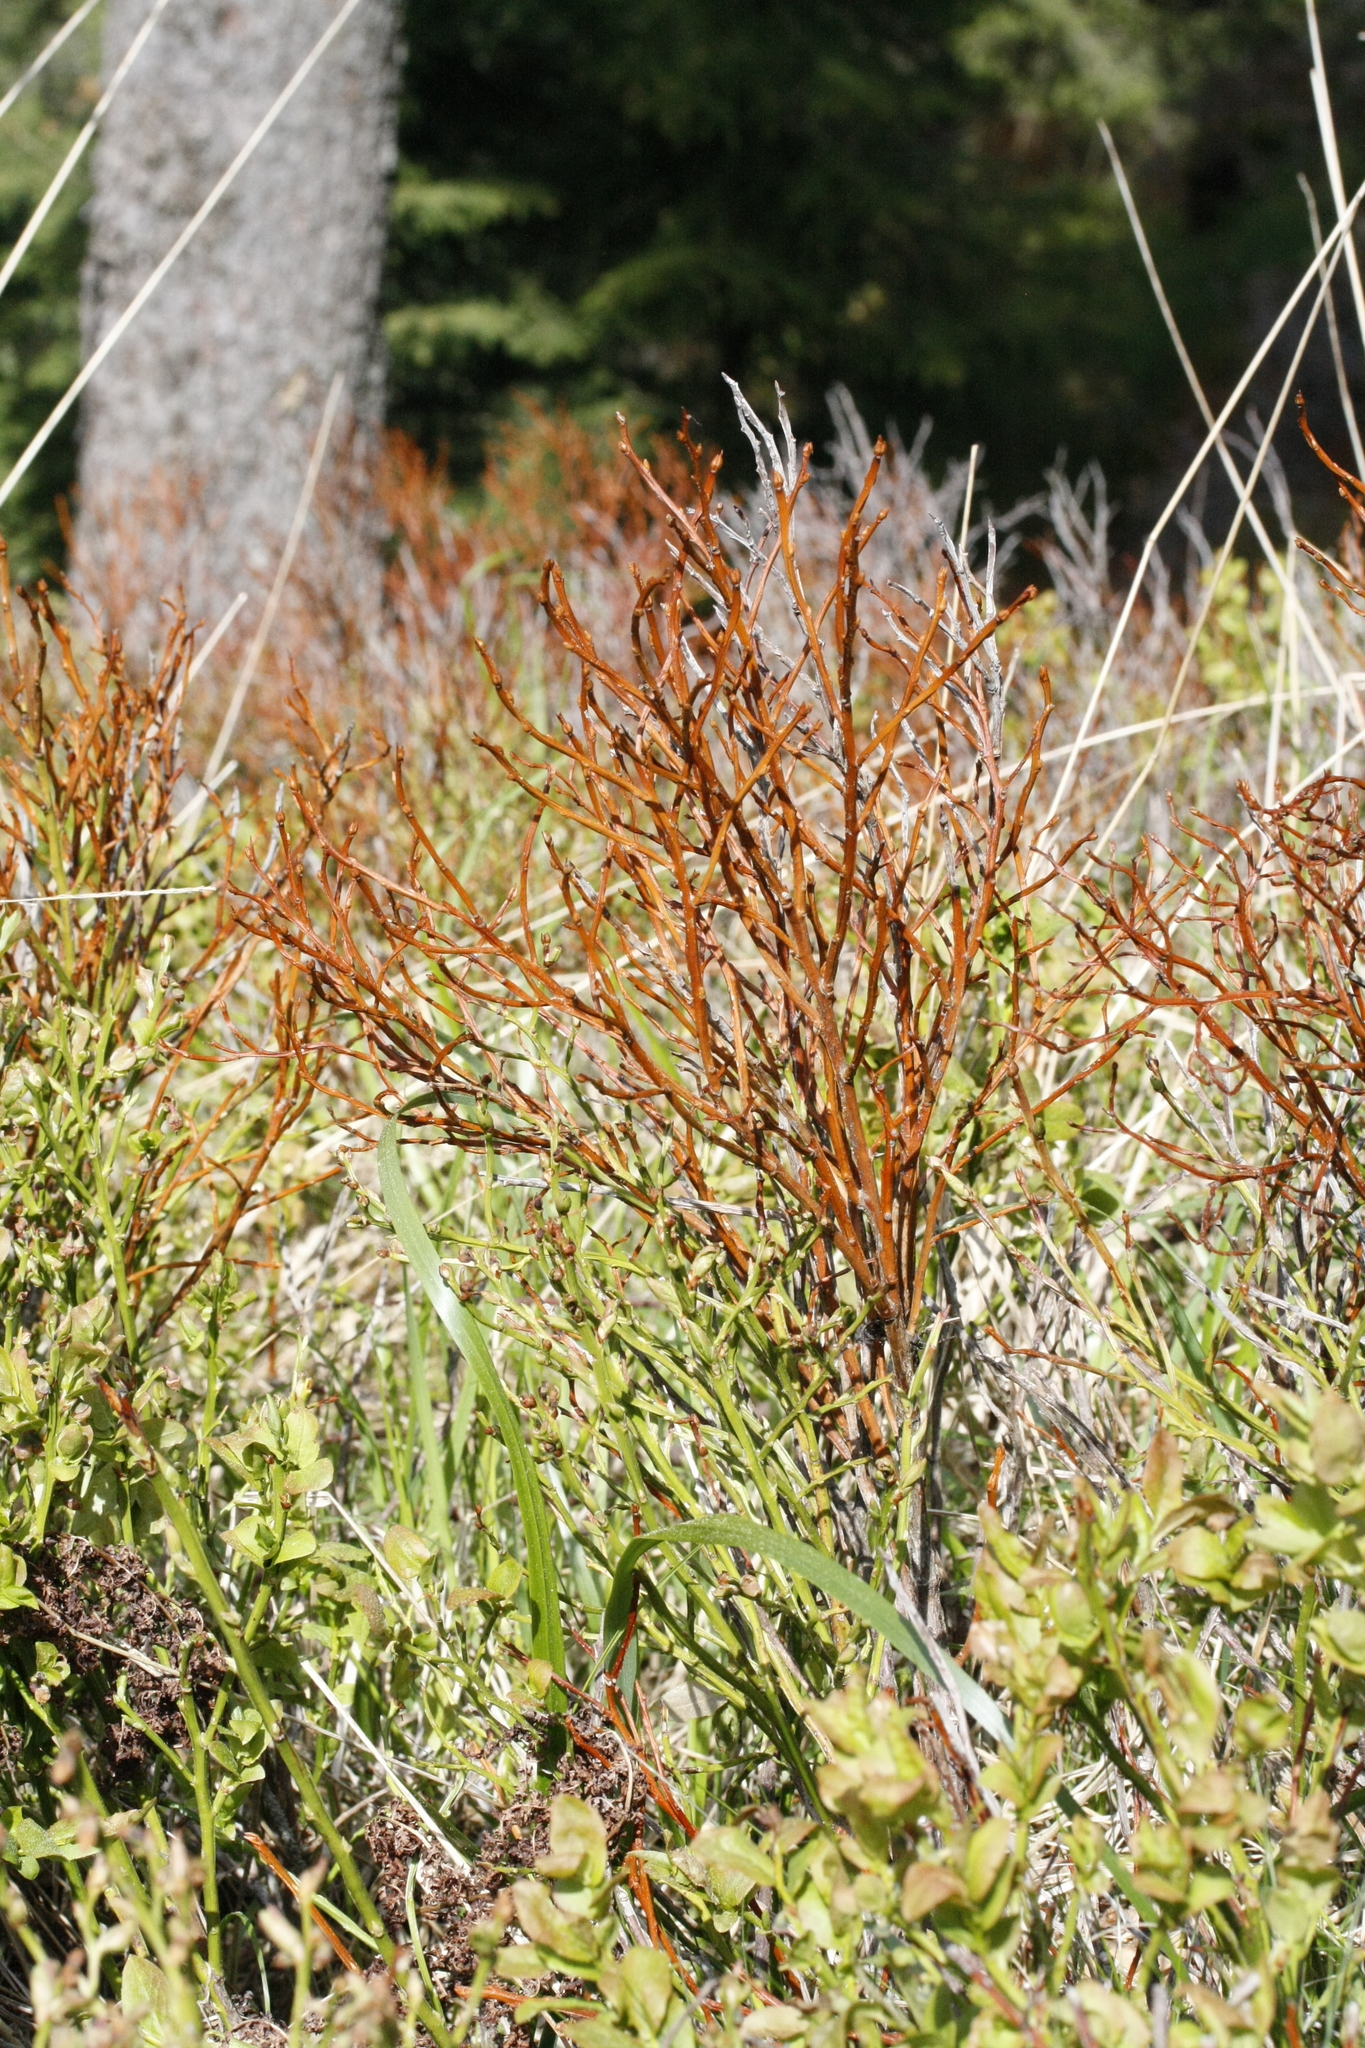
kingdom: Plantae
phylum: Tracheophyta
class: Magnoliopsida
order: Ericales
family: Ericaceae
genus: Vaccinium
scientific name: Vaccinium myrtillus
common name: Bilberry
